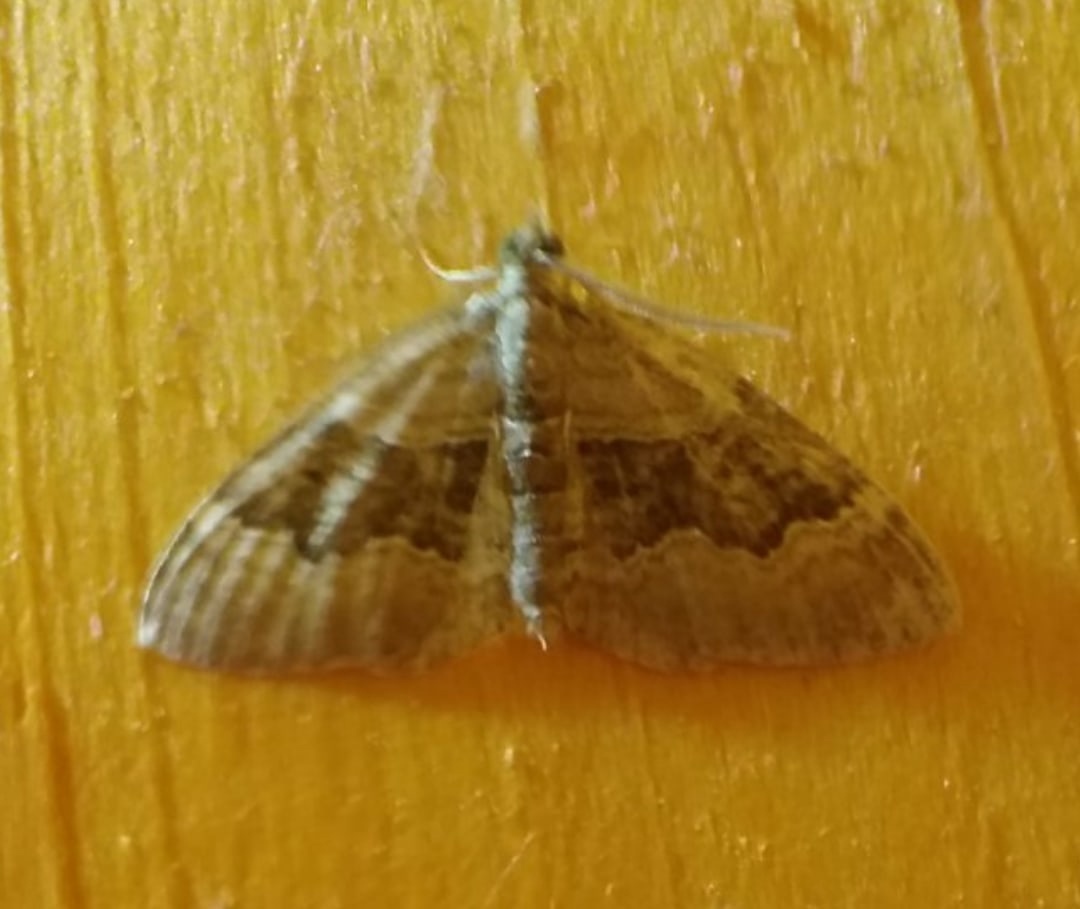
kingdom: Animalia
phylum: Arthropoda
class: Insecta
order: Lepidoptera
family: Geometridae
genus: Xanthorhoe
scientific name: Xanthorhoe quadrifasiata
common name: Large twin-spot carpet
